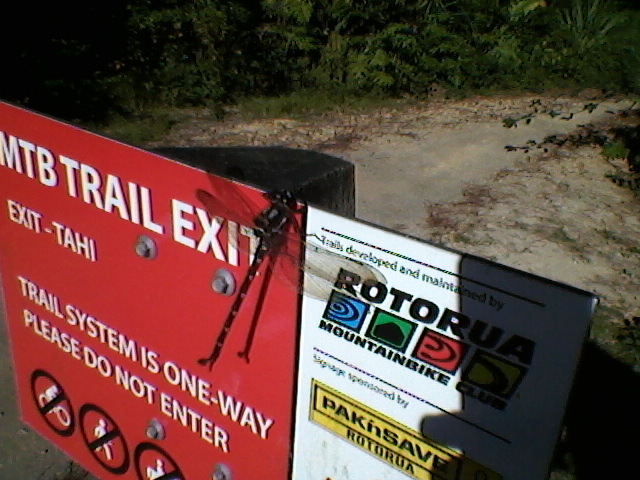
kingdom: Animalia
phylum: Arthropoda
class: Insecta
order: Odonata
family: Petaluridae
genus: Uropetala
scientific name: Uropetala carovei
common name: Bush giant dragonfly
